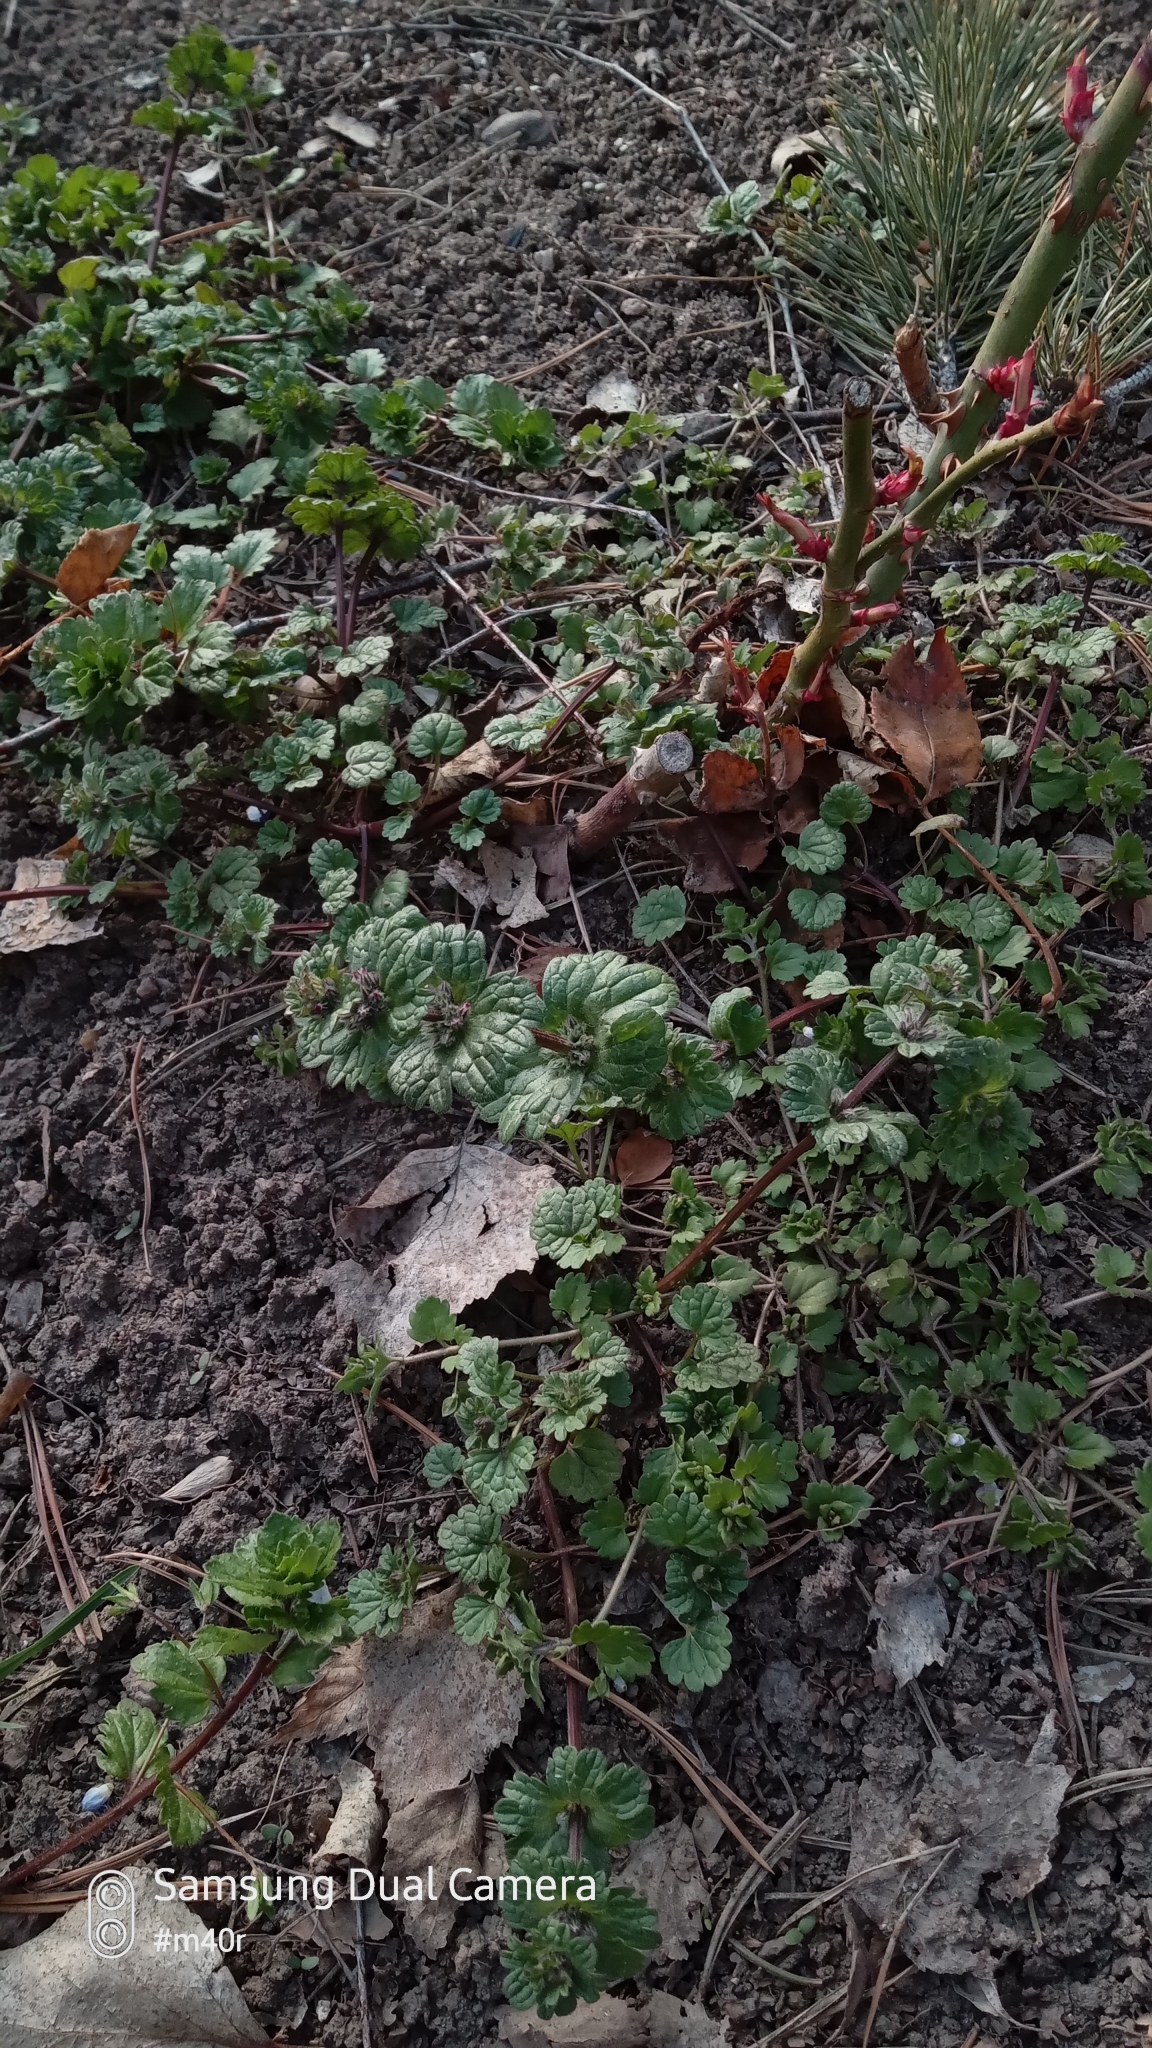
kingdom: Plantae
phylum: Tracheophyta
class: Magnoliopsida
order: Lamiales
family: Lamiaceae
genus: Lamium
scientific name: Lamium amplexicaule
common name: Henbit dead-nettle
